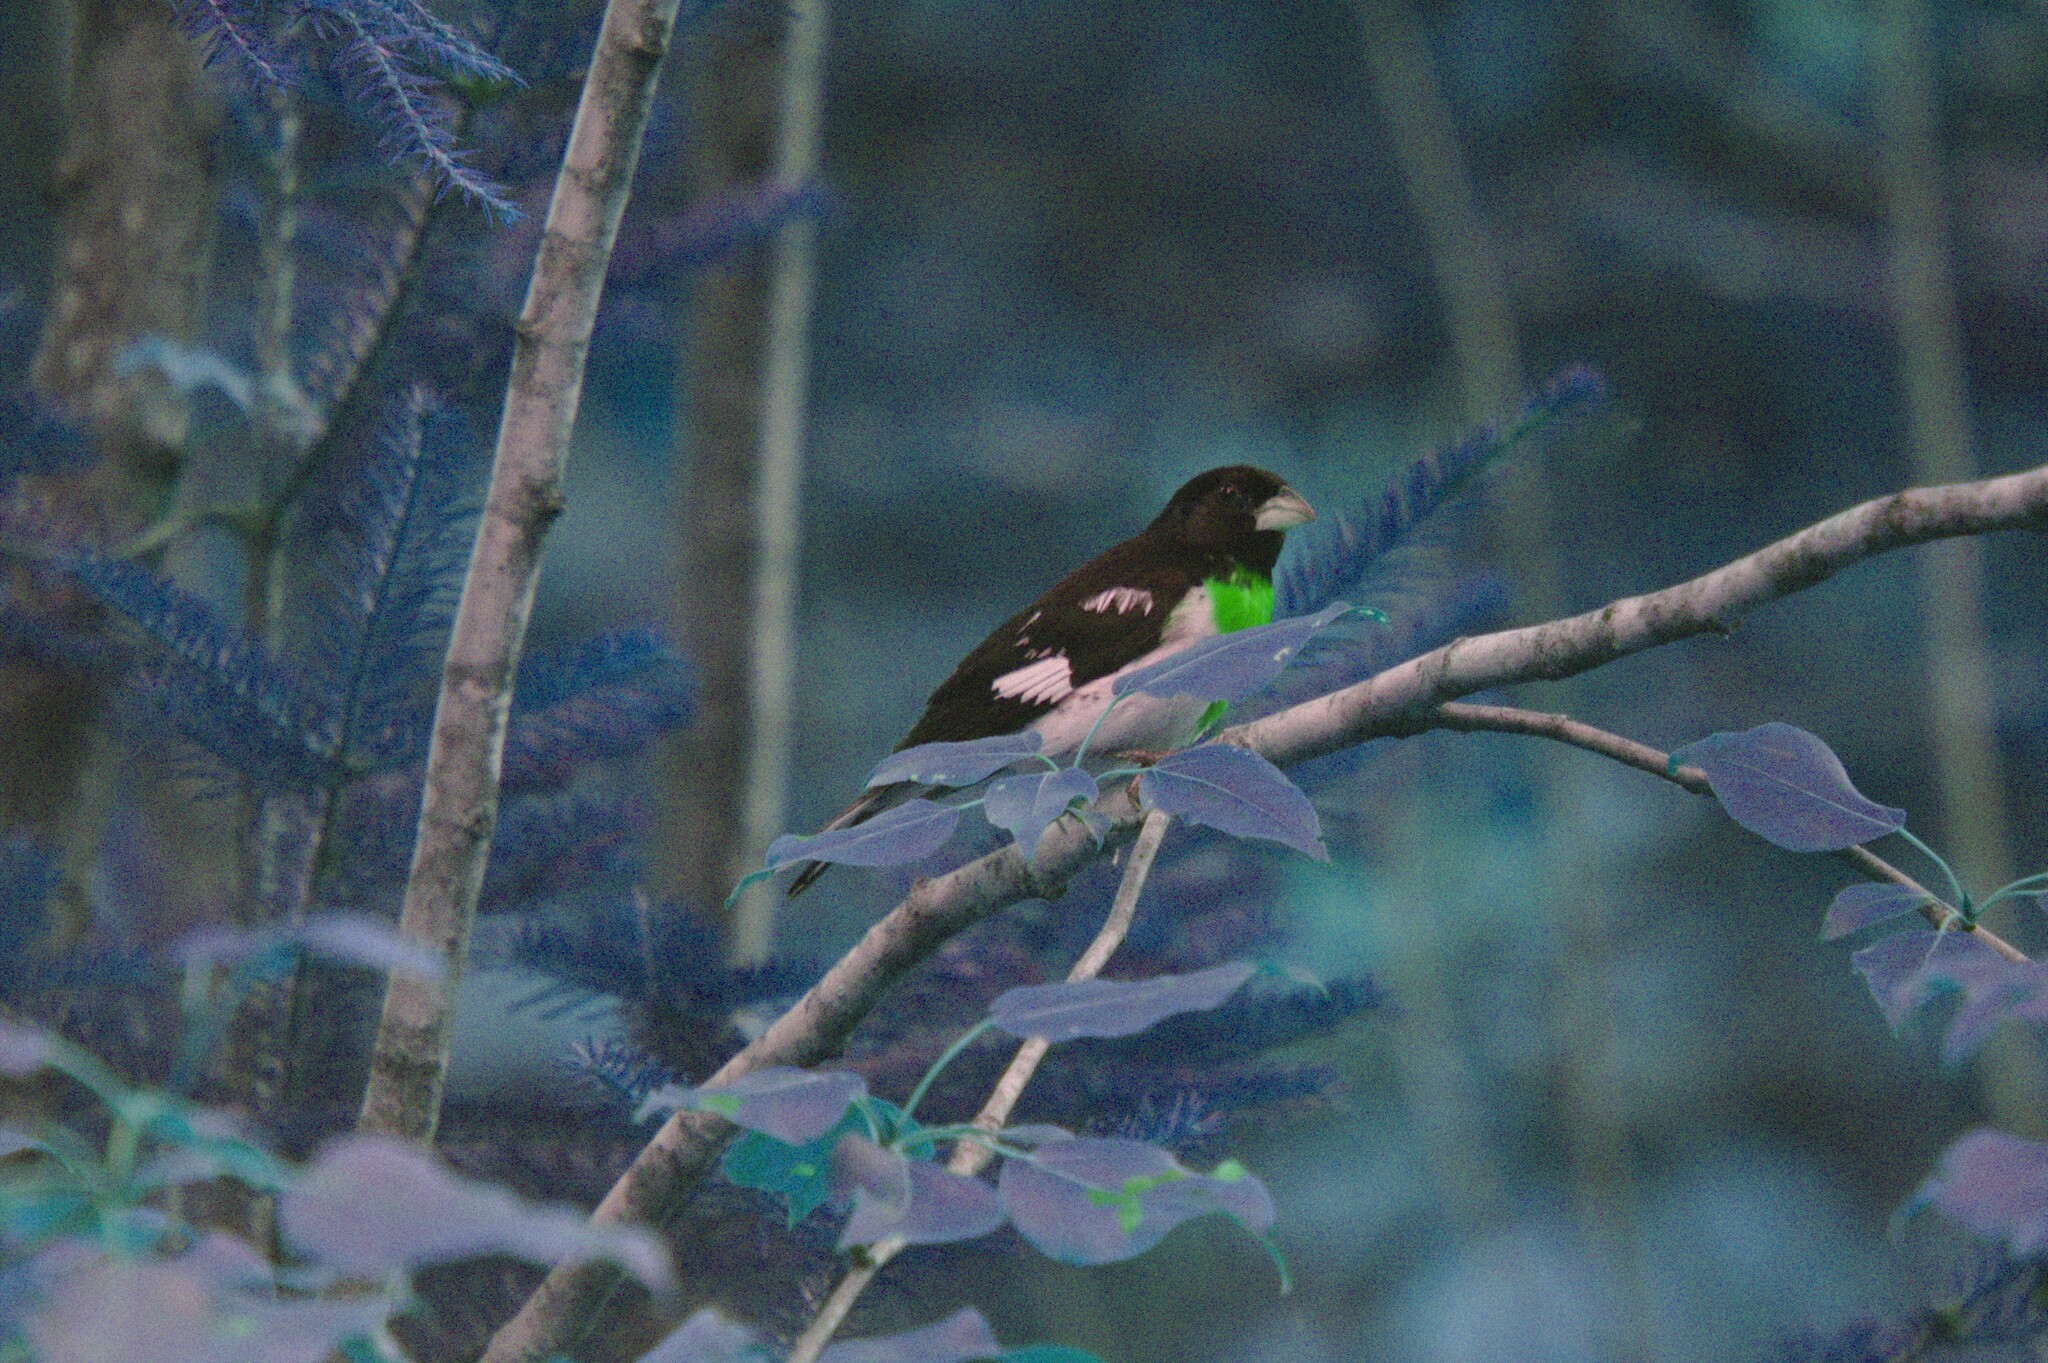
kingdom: Animalia
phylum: Chordata
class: Aves
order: Passeriformes
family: Cardinalidae
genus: Pheucticus
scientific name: Pheucticus ludovicianus
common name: Rose-breasted grosbeak
